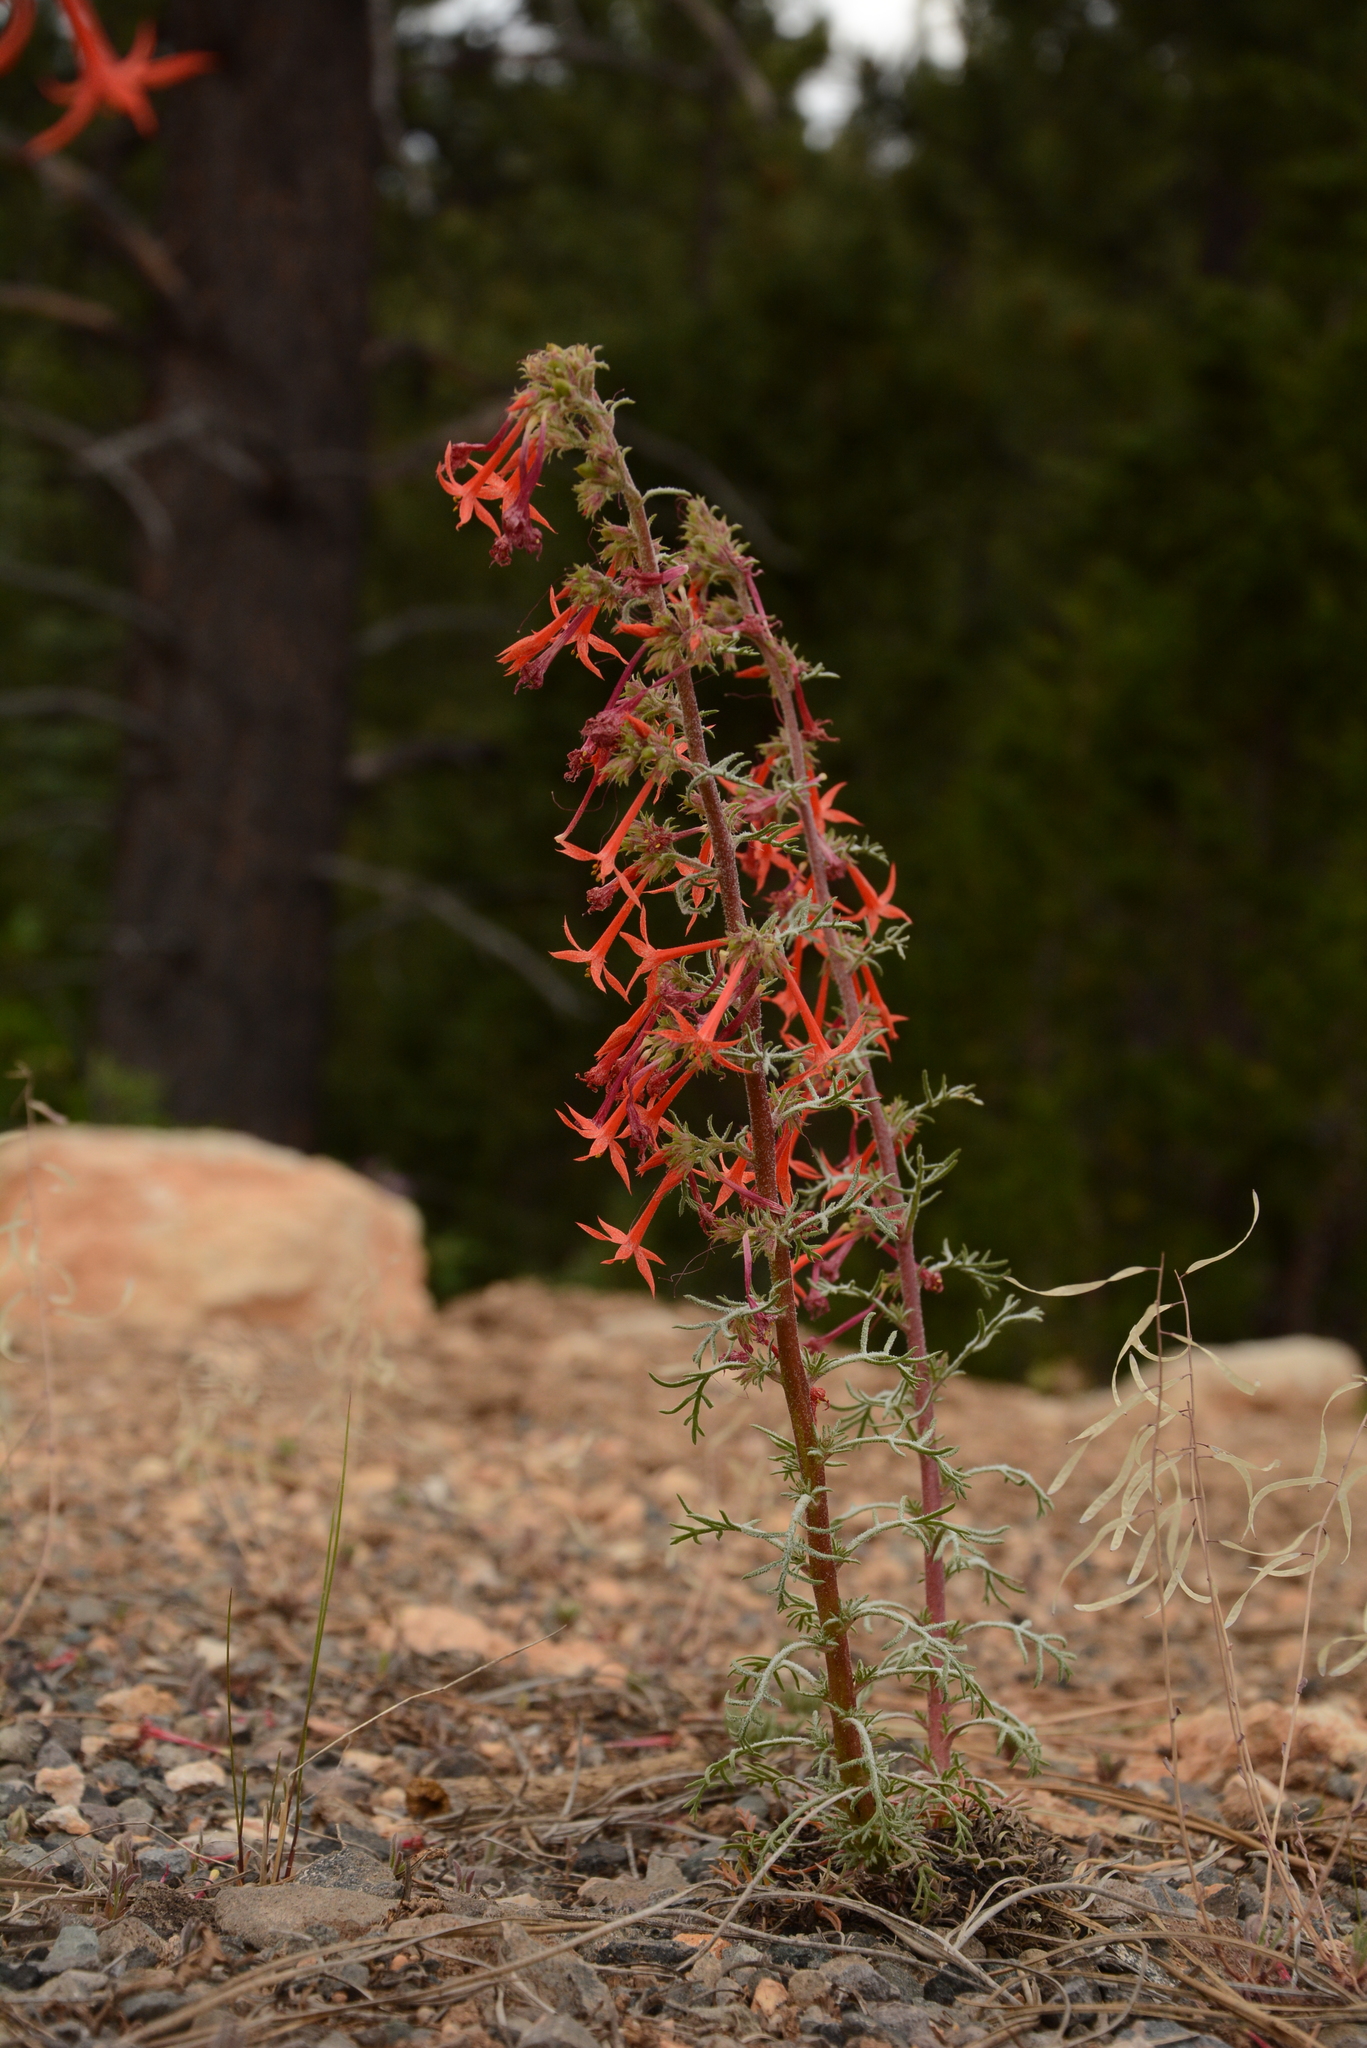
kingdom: Plantae
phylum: Tracheophyta
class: Magnoliopsida
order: Ericales
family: Polemoniaceae
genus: Ipomopsis
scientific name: Ipomopsis aggregata
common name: Scarlet gilia
